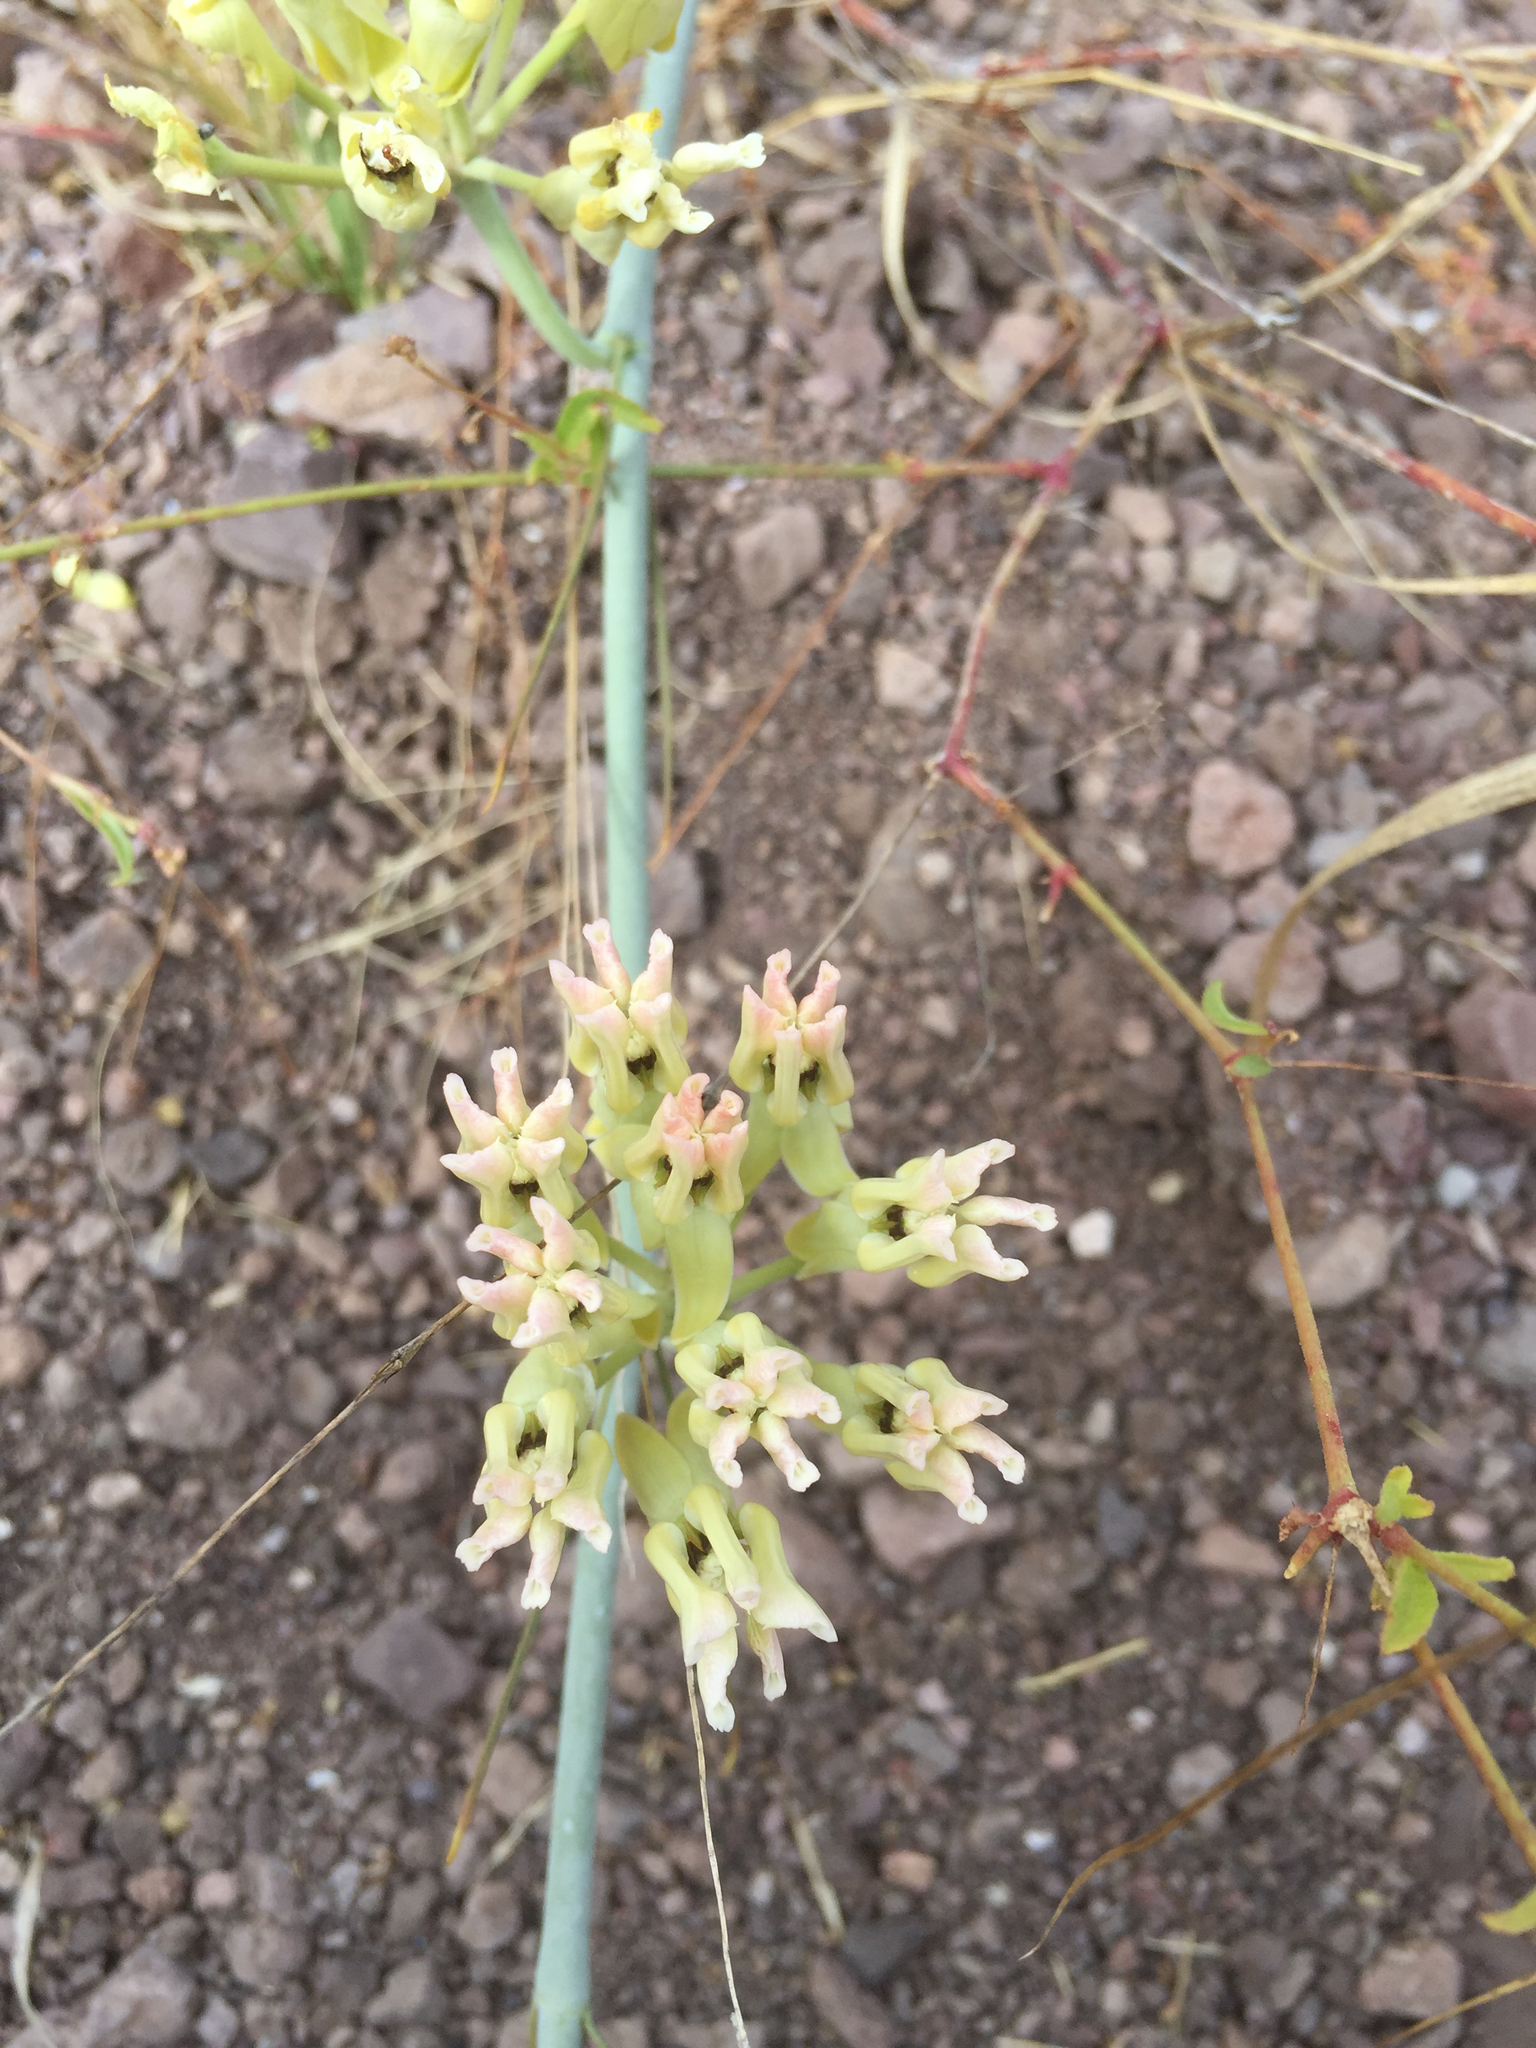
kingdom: Plantae
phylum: Tracheophyta
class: Magnoliopsida
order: Gentianales
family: Apocynaceae
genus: Asclepias
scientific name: Asclepias subulata
